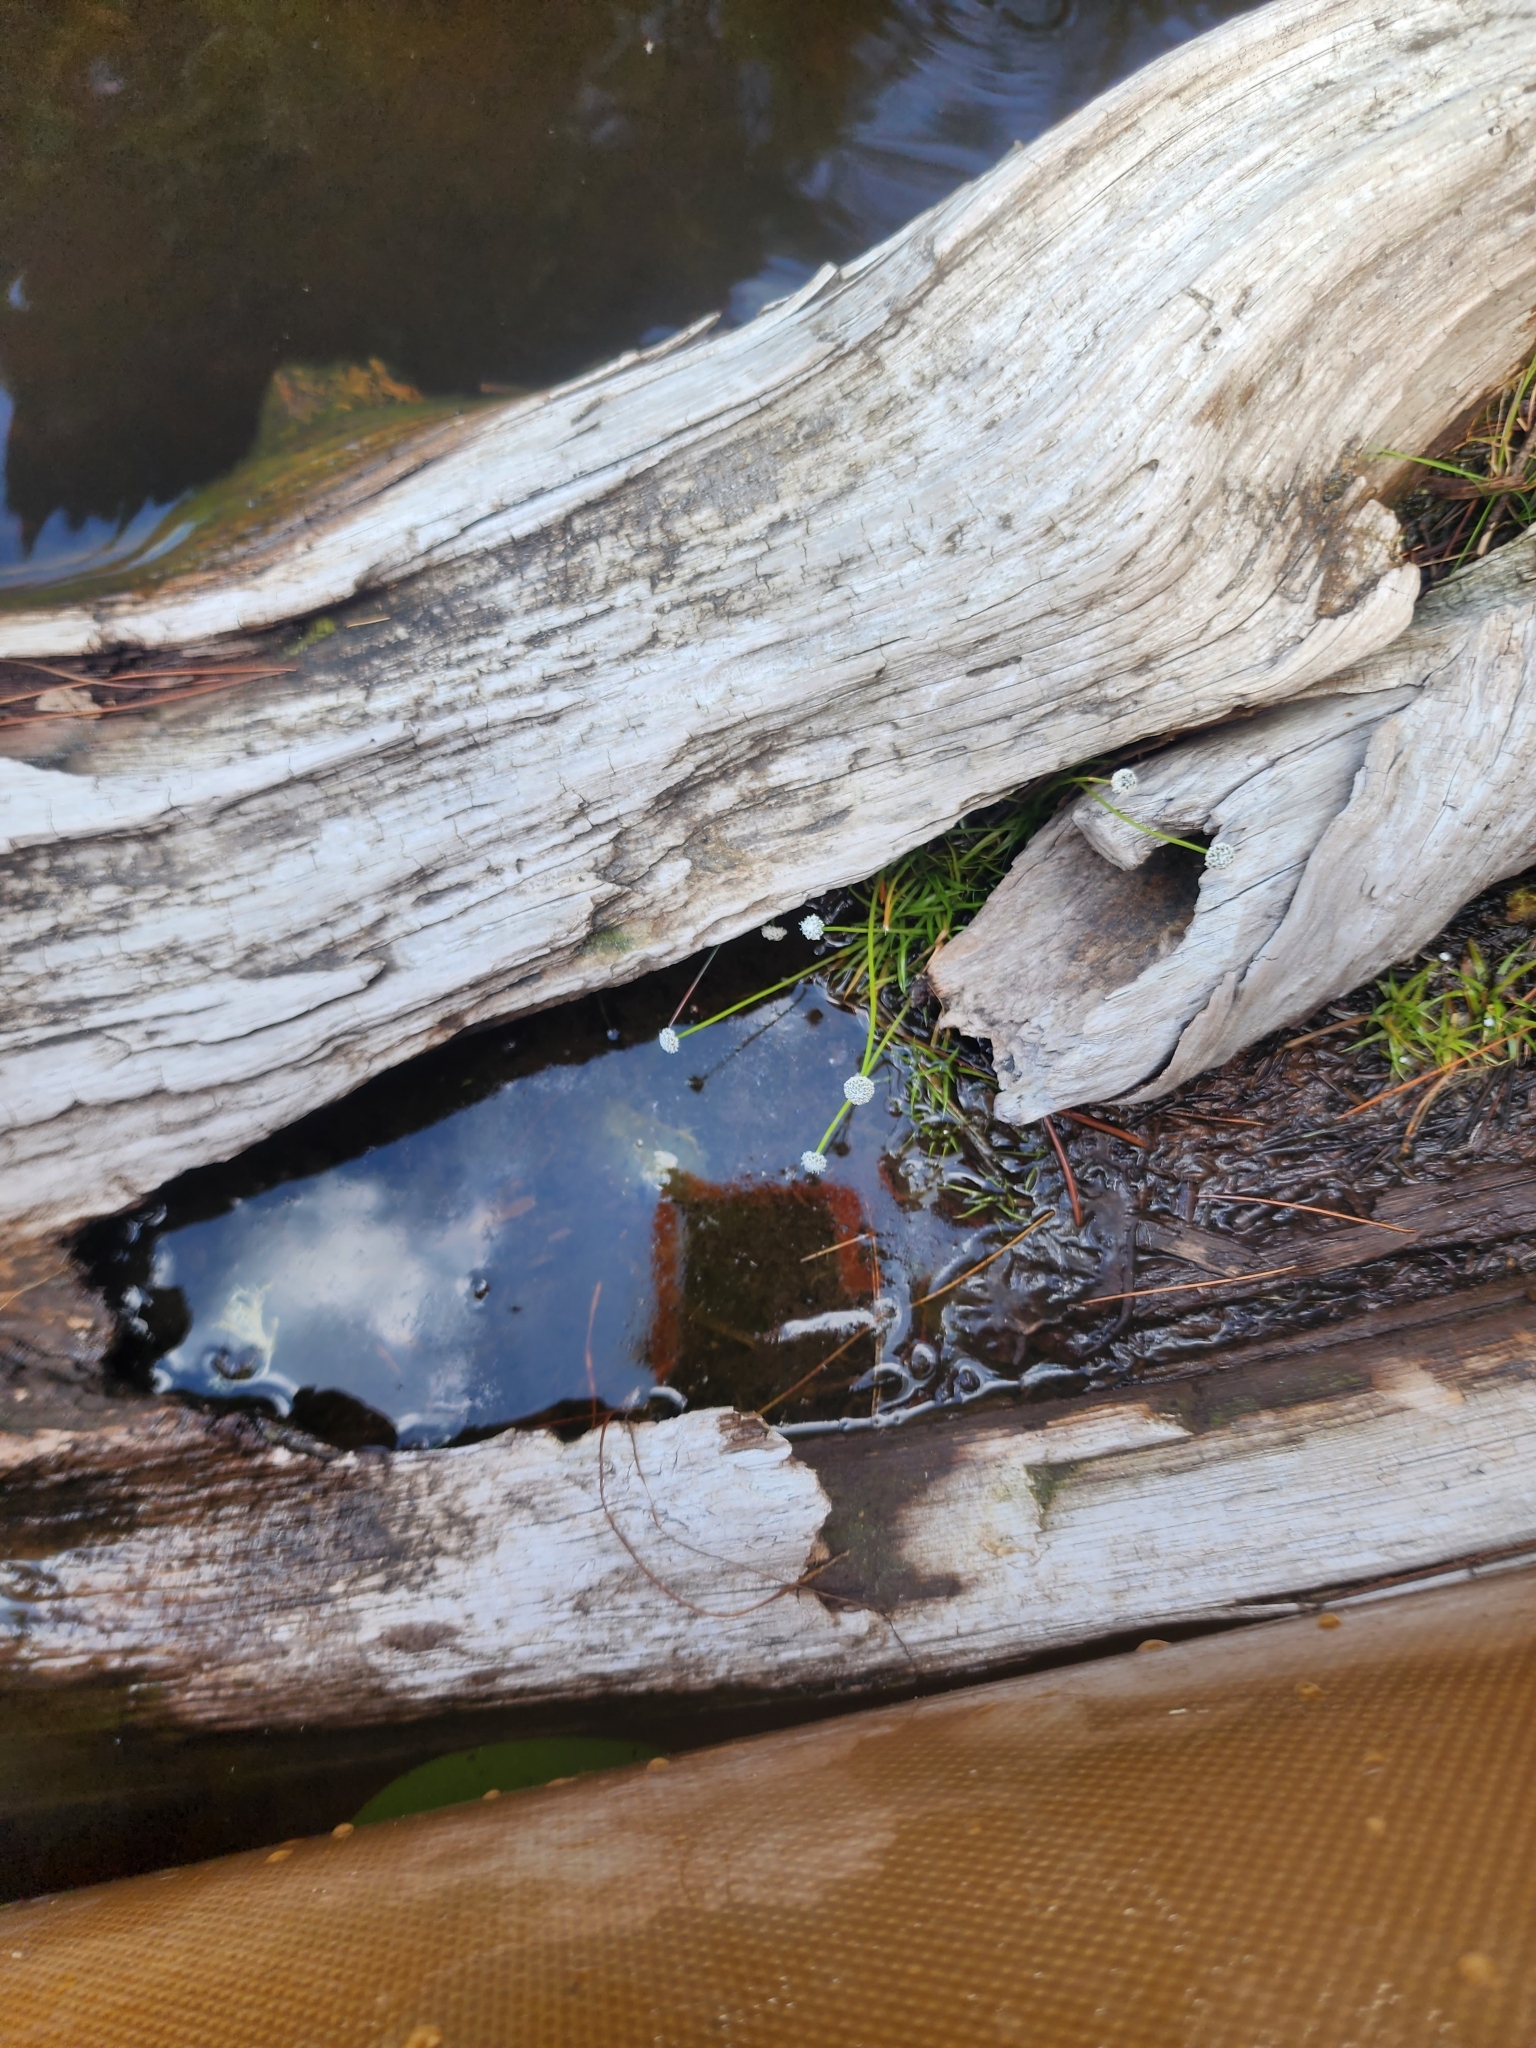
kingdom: Plantae
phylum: Tracheophyta
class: Liliopsida
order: Poales
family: Eriocaulaceae
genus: Eriocaulon
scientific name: Eriocaulon aquaticum
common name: Pipewort
